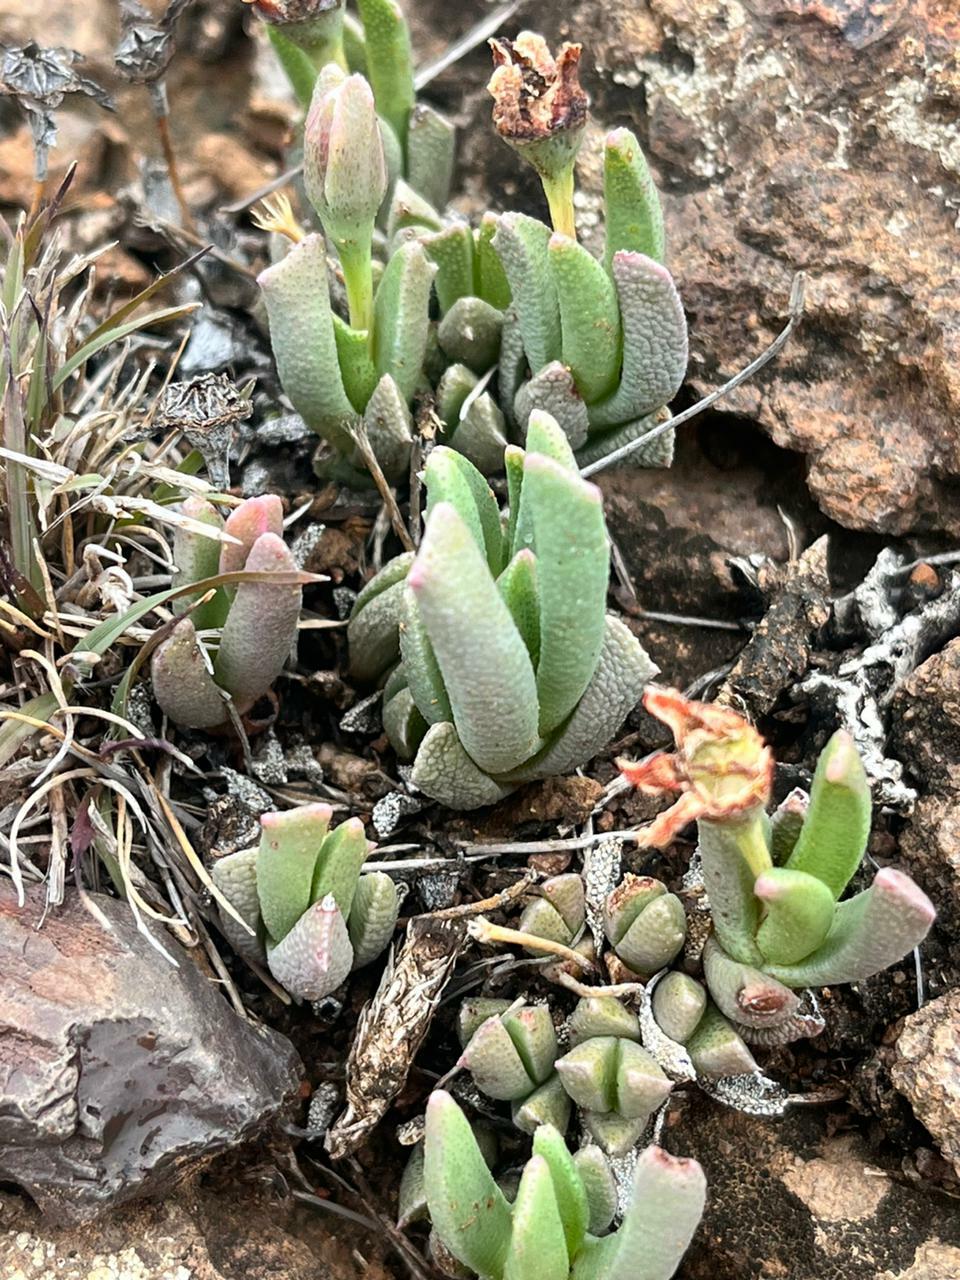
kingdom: Plantae
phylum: Tracheophyta
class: Magnoliopsida
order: Caryophyllales
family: Aizoaceae
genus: Dracophilus
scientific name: Dracophilus Chasmatophyllum musculinum
